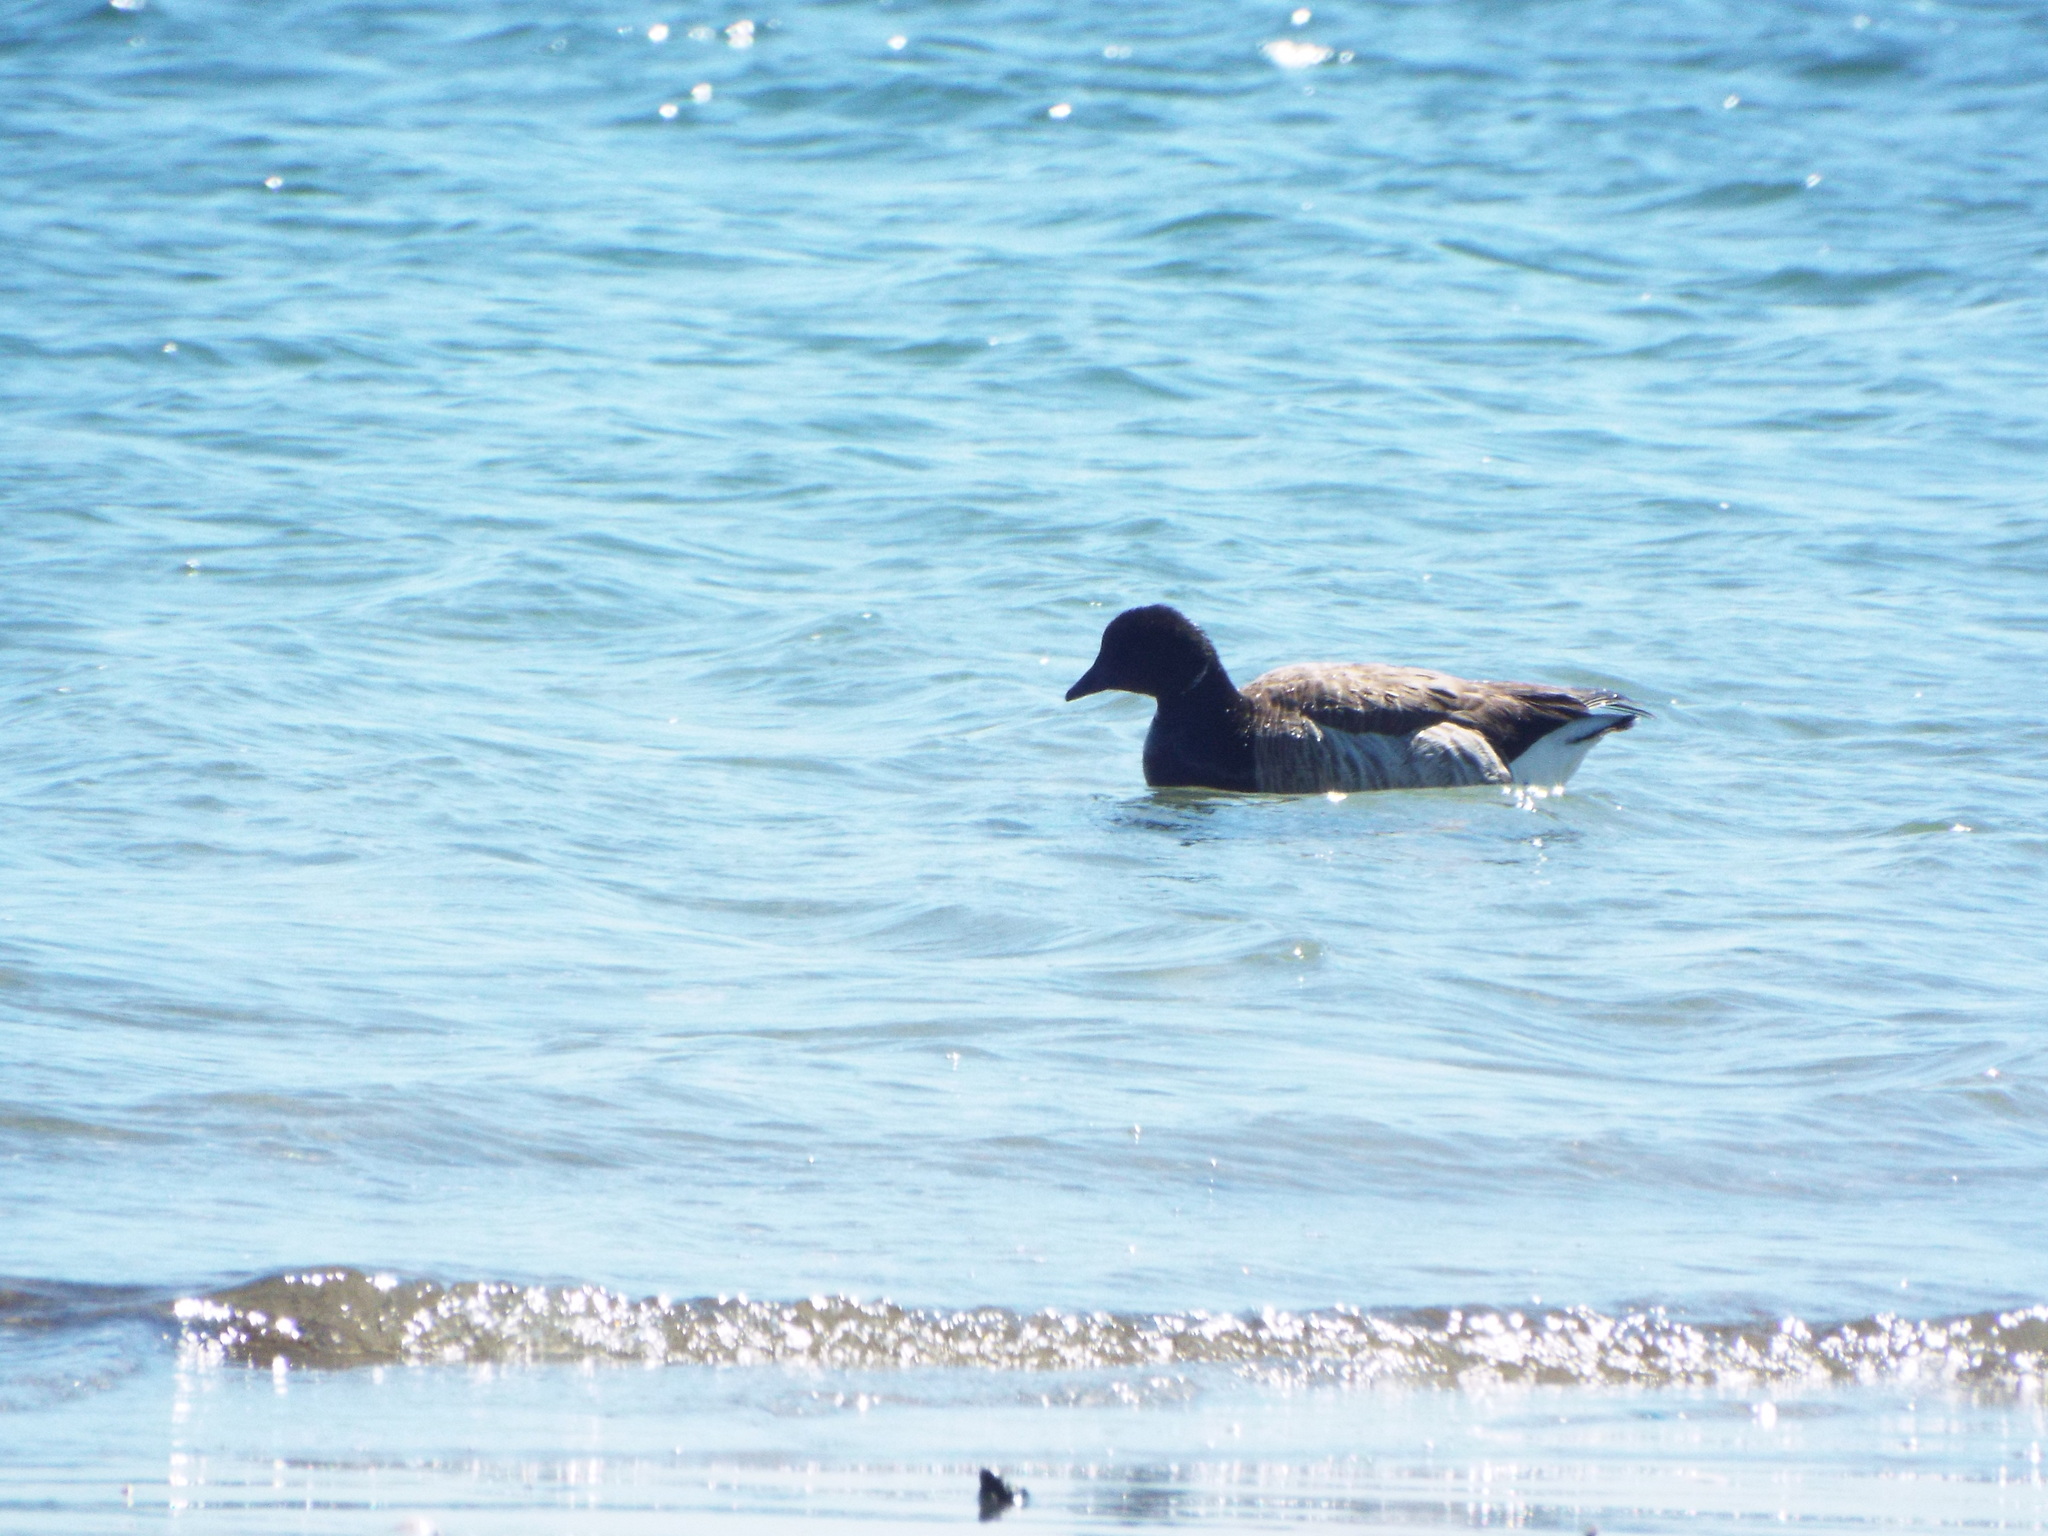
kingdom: Animalia
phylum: Chordata
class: Aves
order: Anseriformes
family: Anatidae
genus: Branta
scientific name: Branta bernicla
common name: Brant goose
